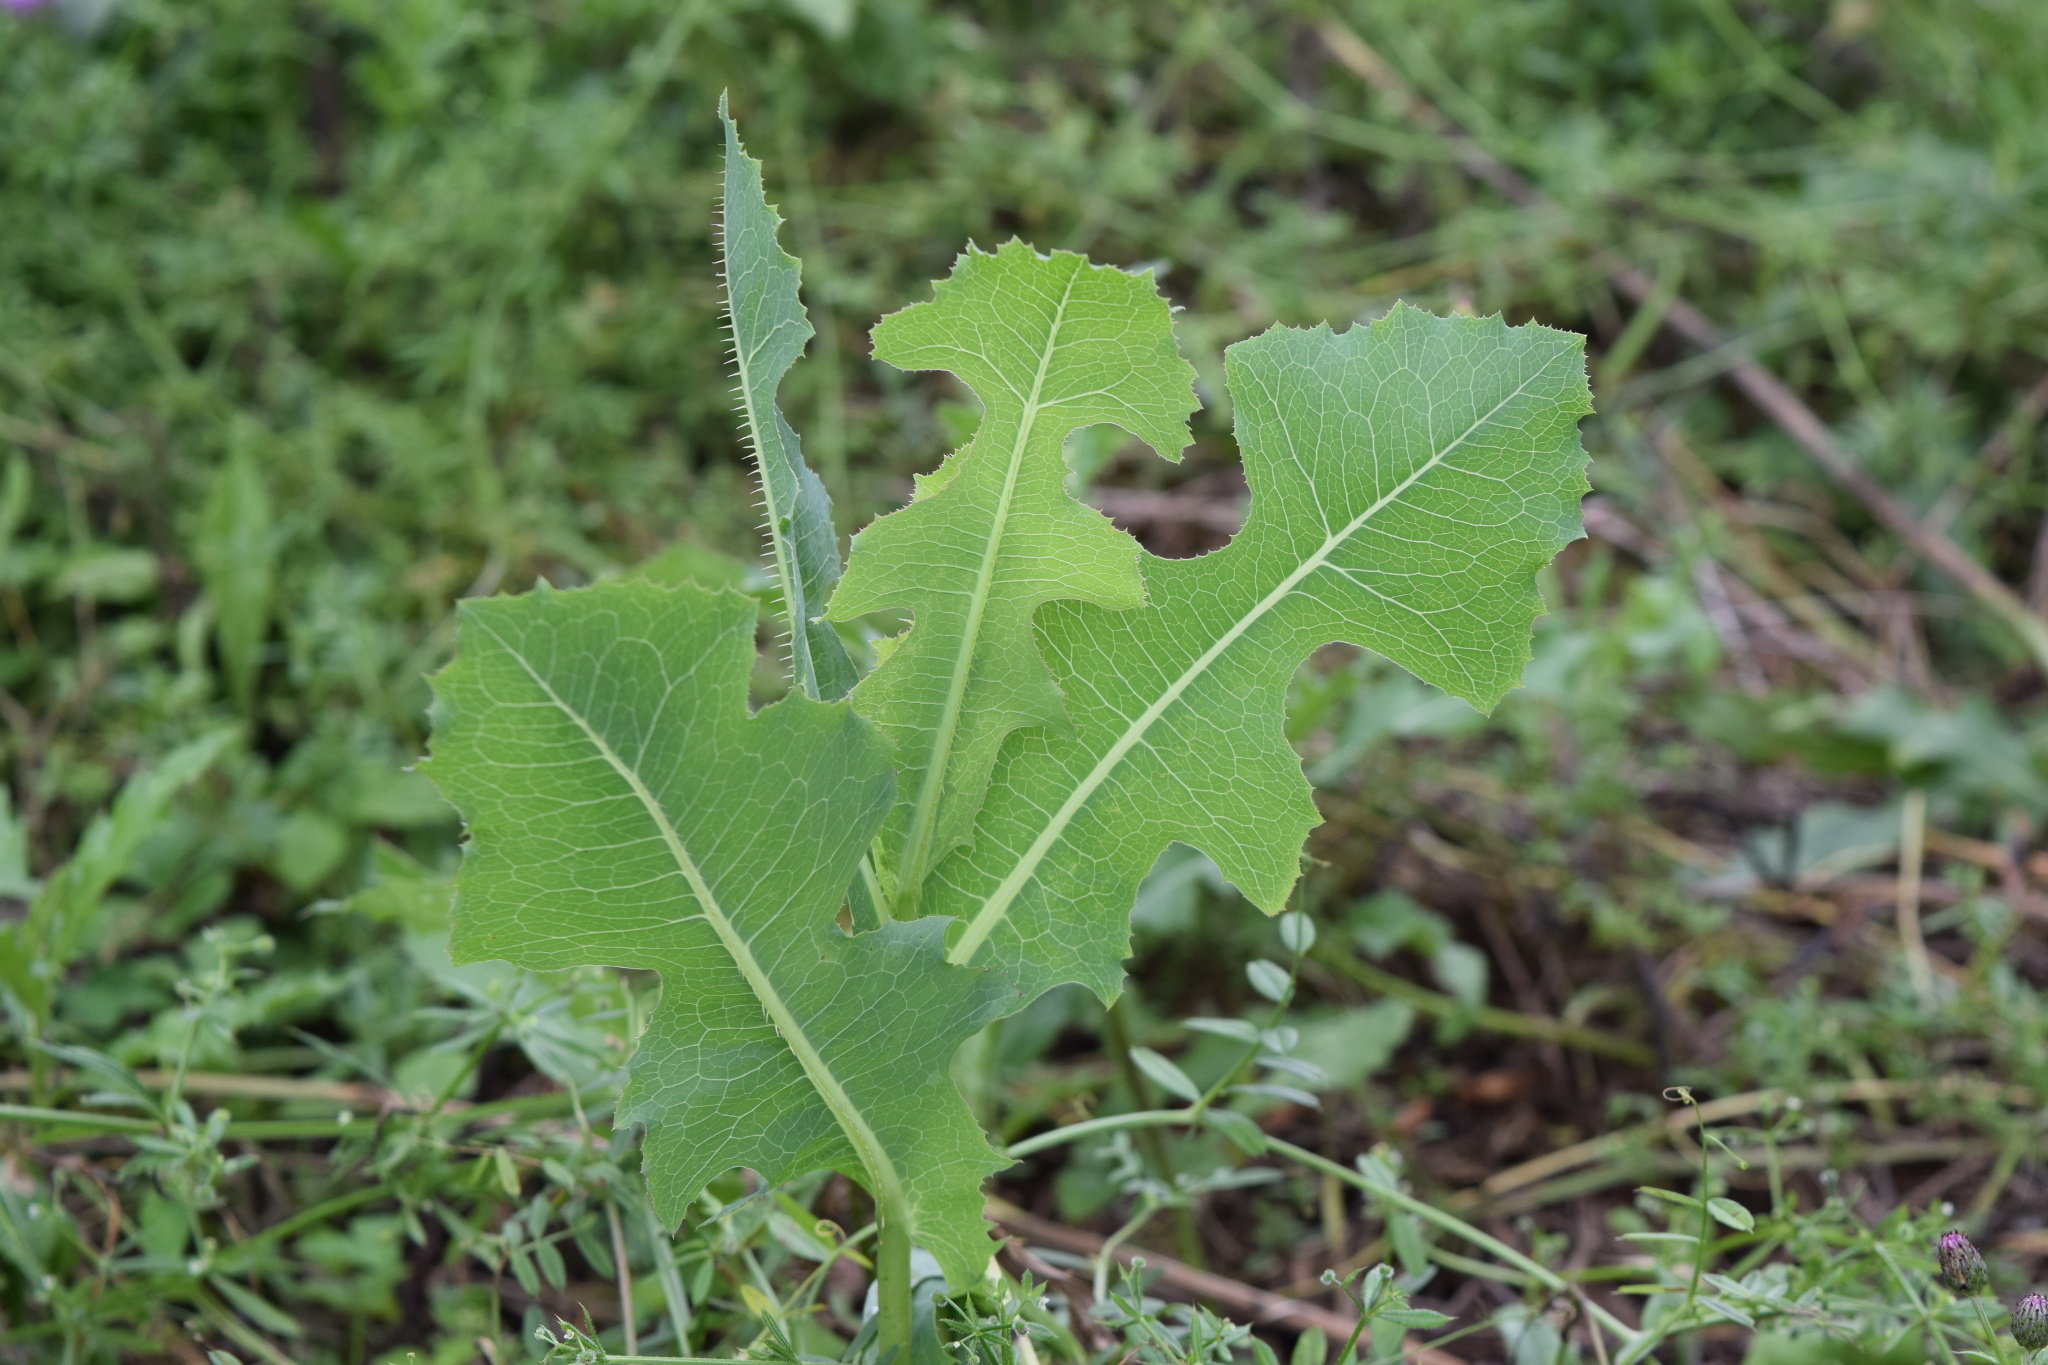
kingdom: Plantae
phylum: Tracheophyta
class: Magnoliopsida
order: Asterales
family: Asteraceae
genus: Lactuca
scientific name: Lactuca serriola
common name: Prickly lettuce
